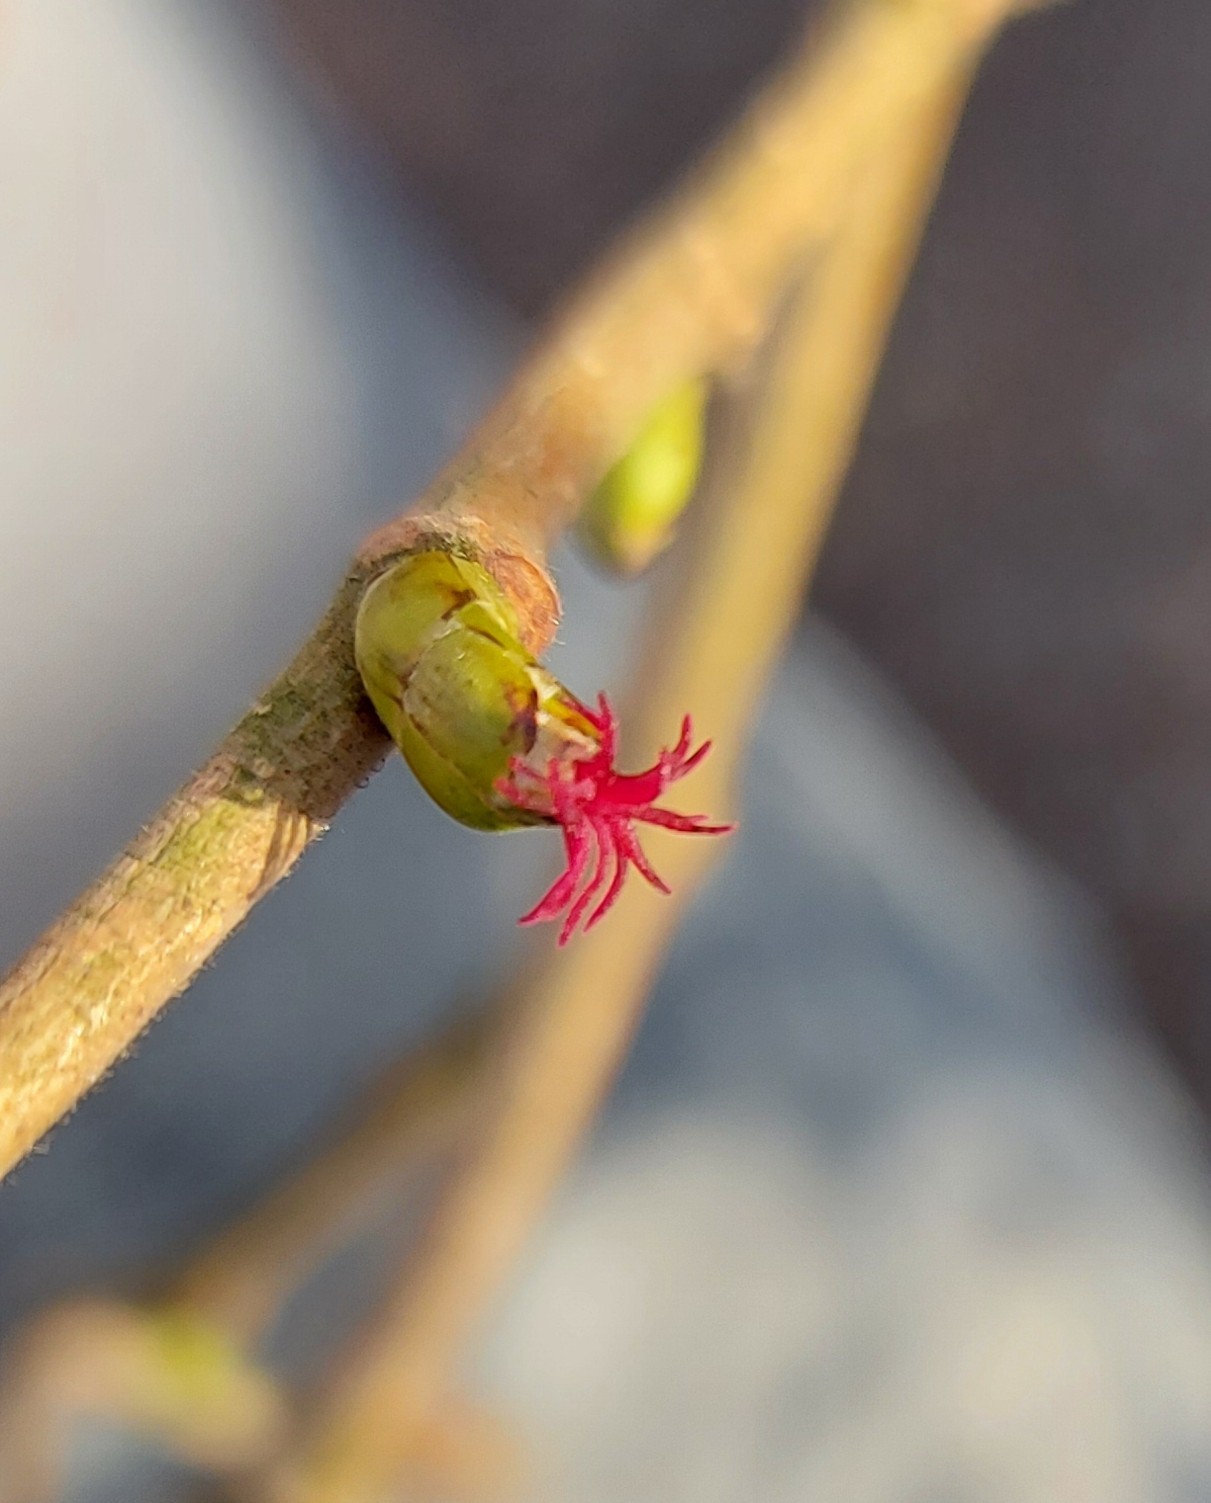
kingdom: Plantae
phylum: Tracheophyta
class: Magnoliopsida
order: Fagales
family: Betulaceae
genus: Corylus
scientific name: Corylus avellana
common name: European hazel
